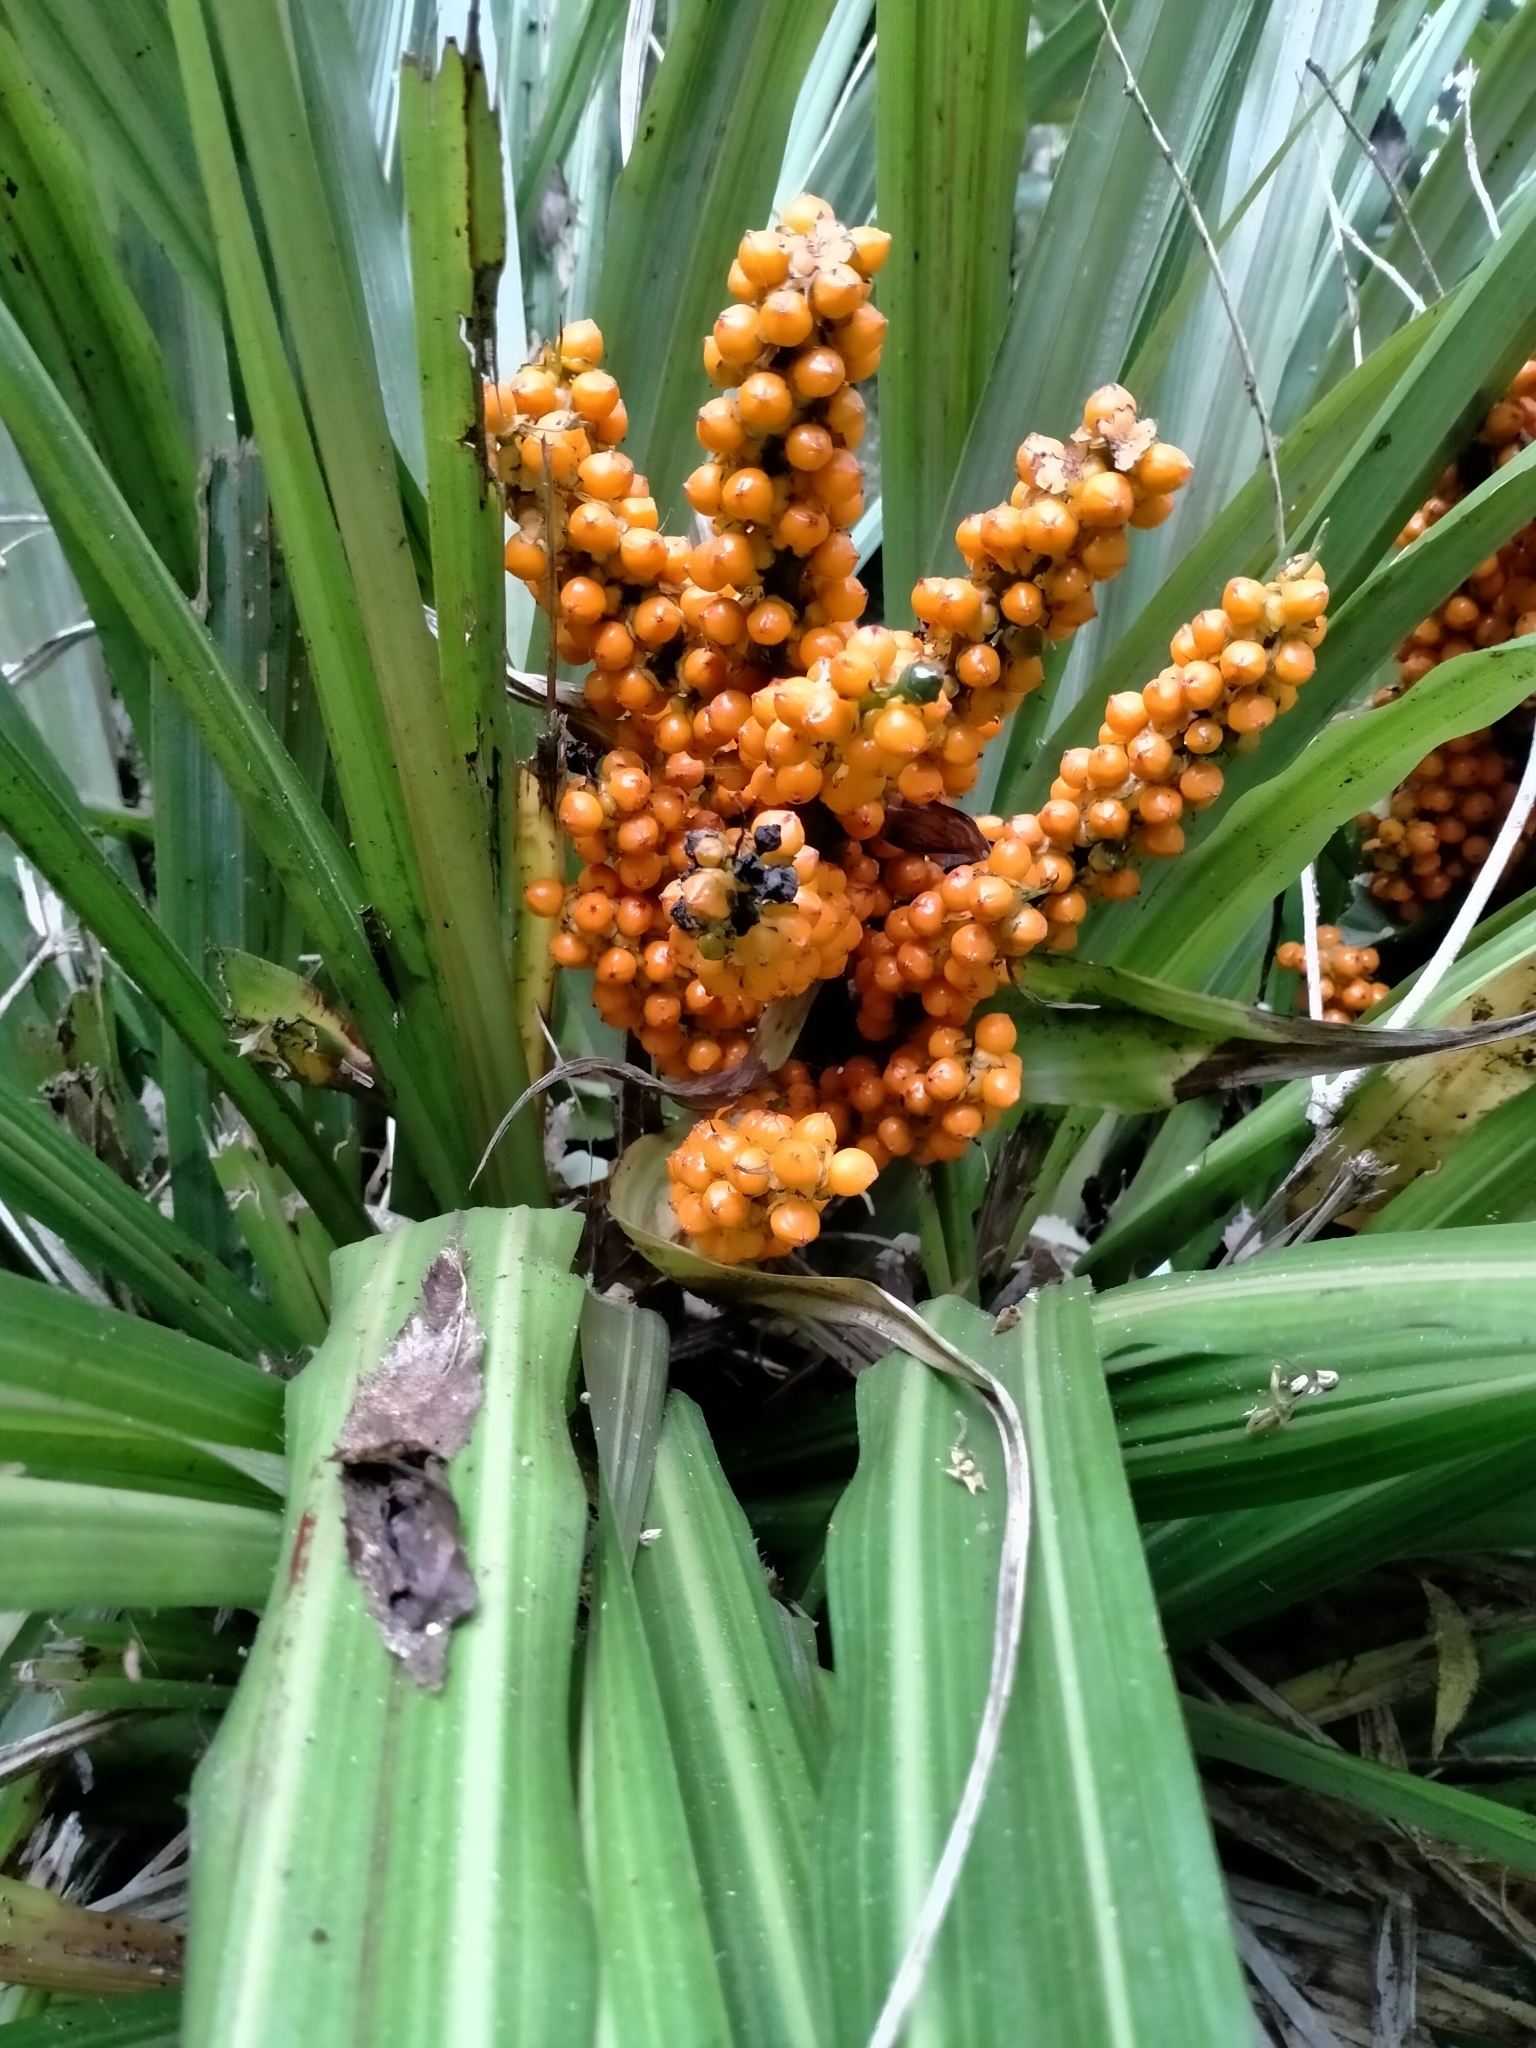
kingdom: Plantae
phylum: Tracheophyta
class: Liliopsida
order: Asparagales
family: Asteliaceae
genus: Astelia
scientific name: Astelia fragrans
